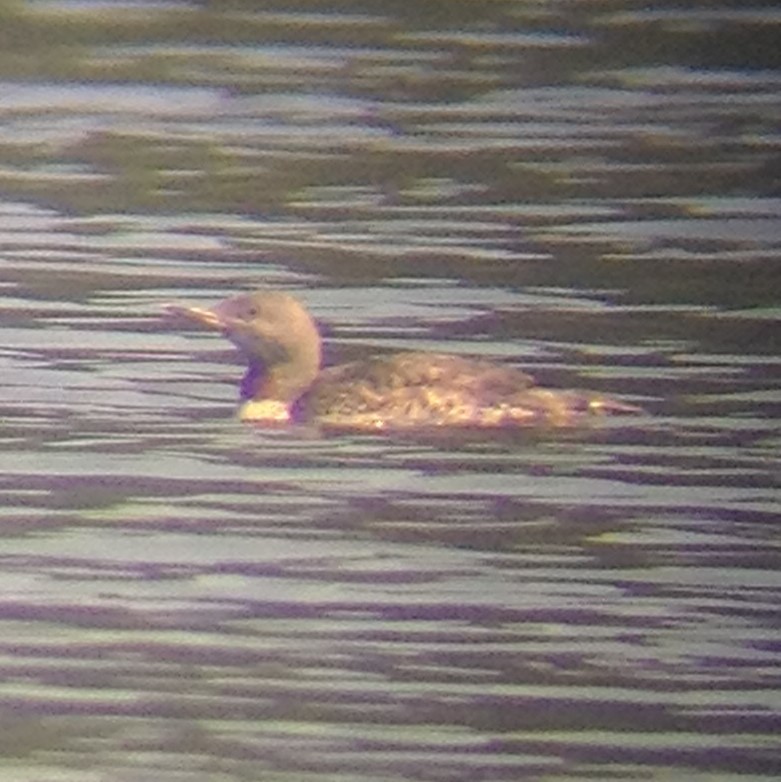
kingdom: Animalia
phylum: Chordata
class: Aves
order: Gaviiformes
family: Gaviidae
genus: Gavia
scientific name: Gavia stellata
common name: Red-throated loon
